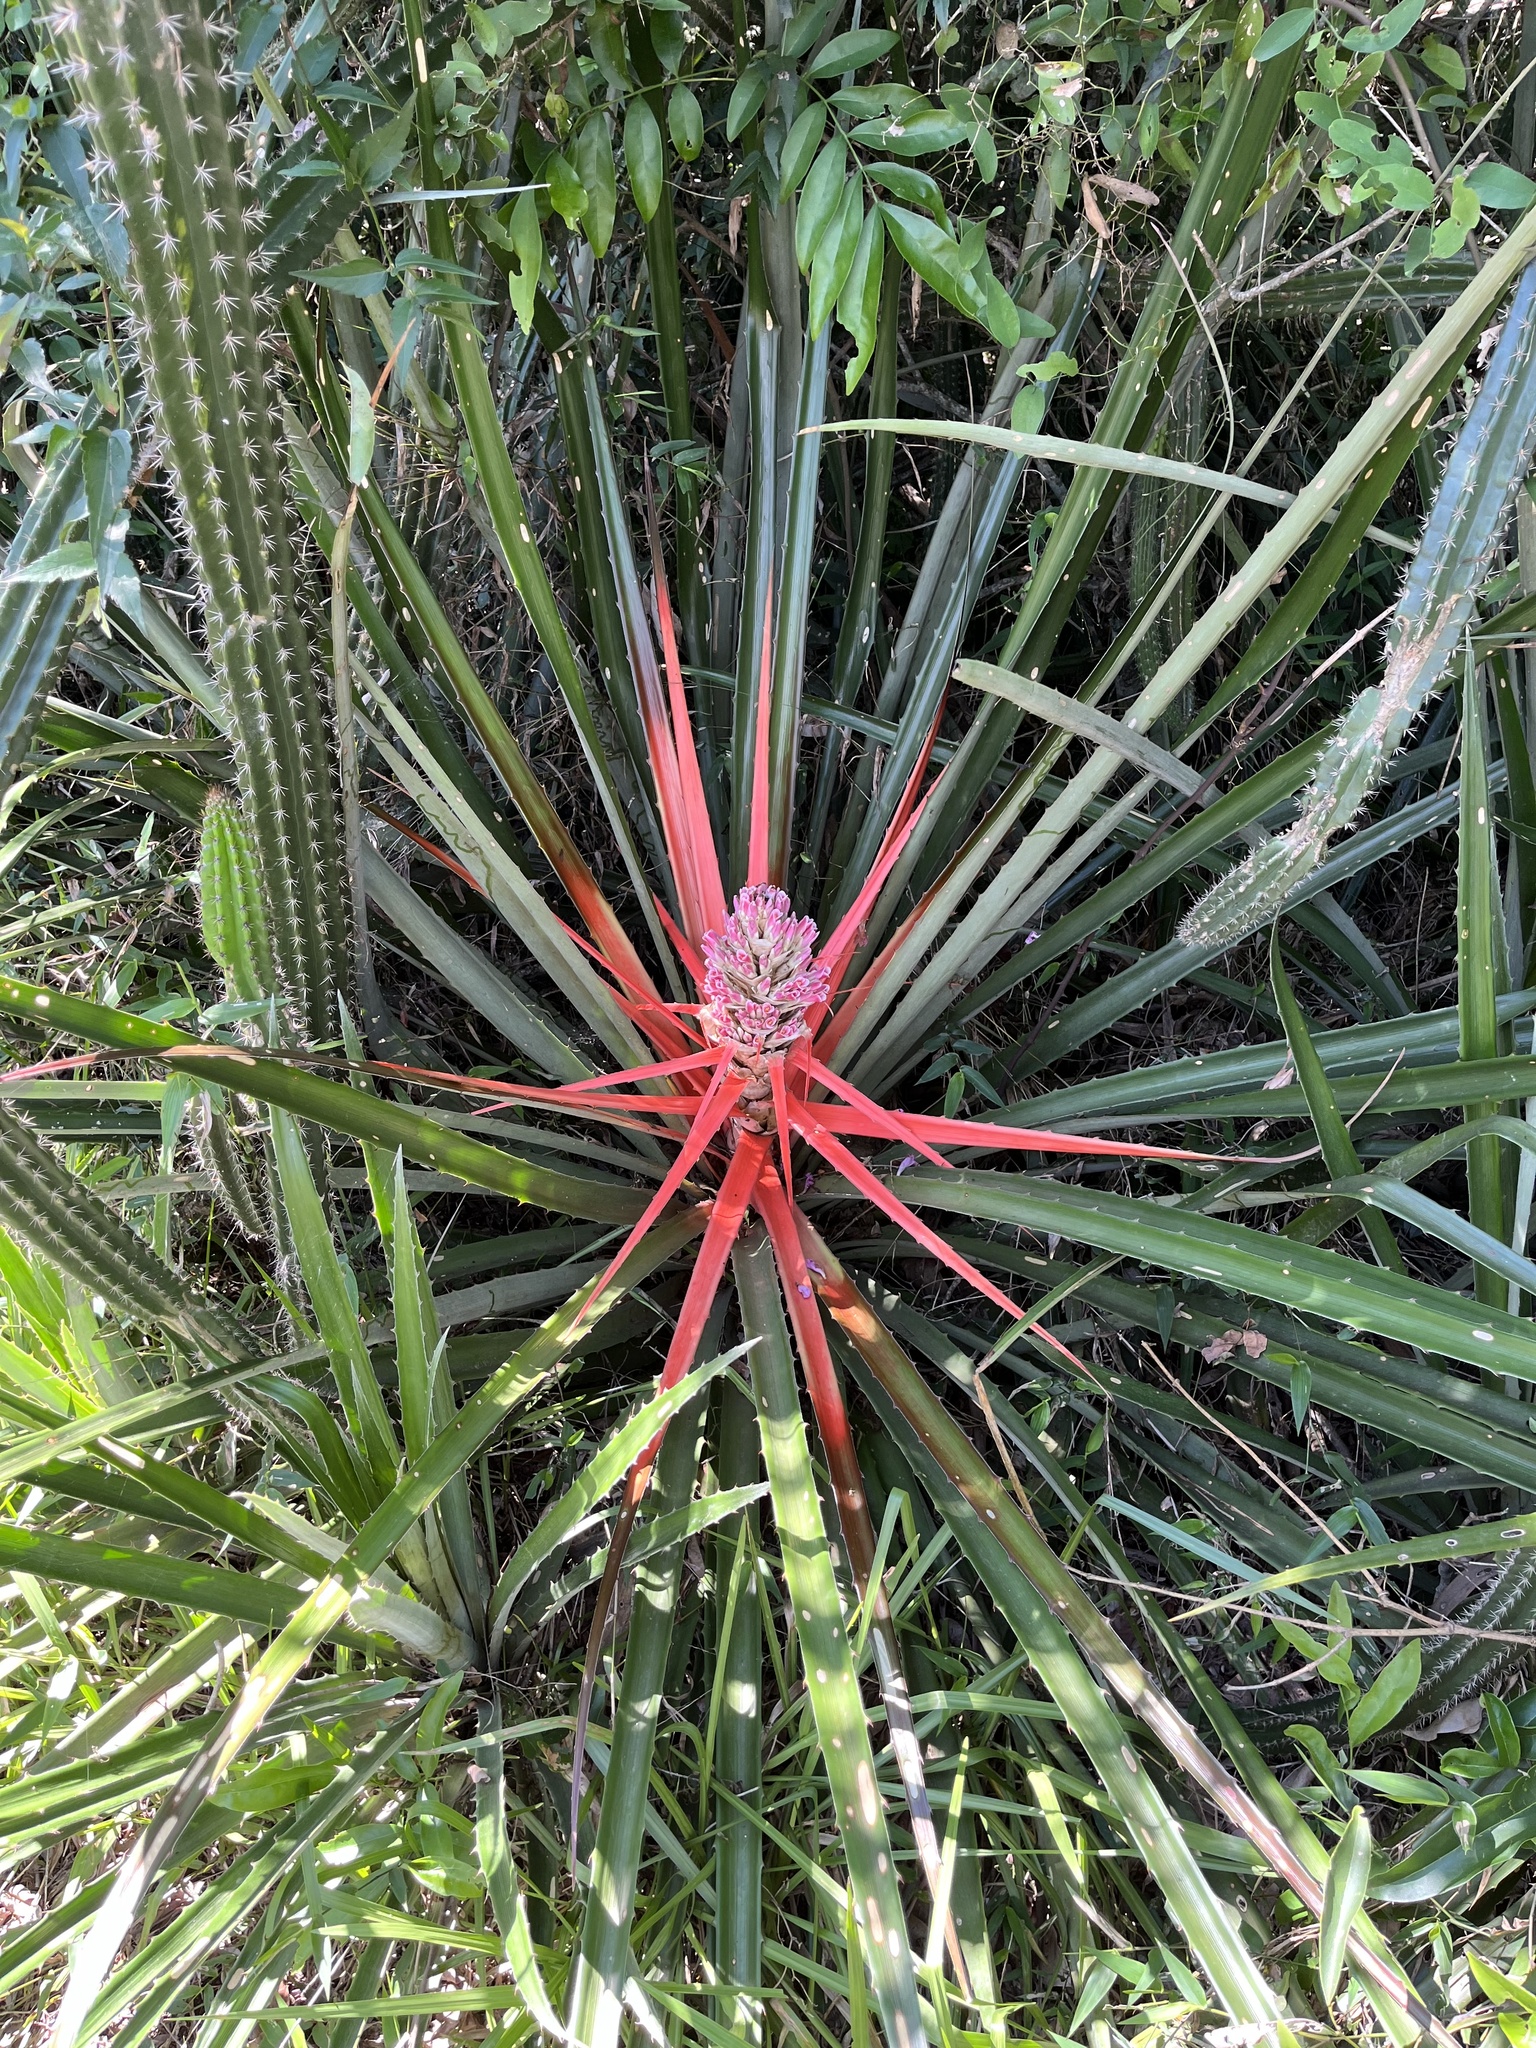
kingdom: Plantae
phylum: Tracheophyta
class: Liliopsida
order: Poales
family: Bromeliaceae
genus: Bromelia
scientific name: Bromelia balansae
